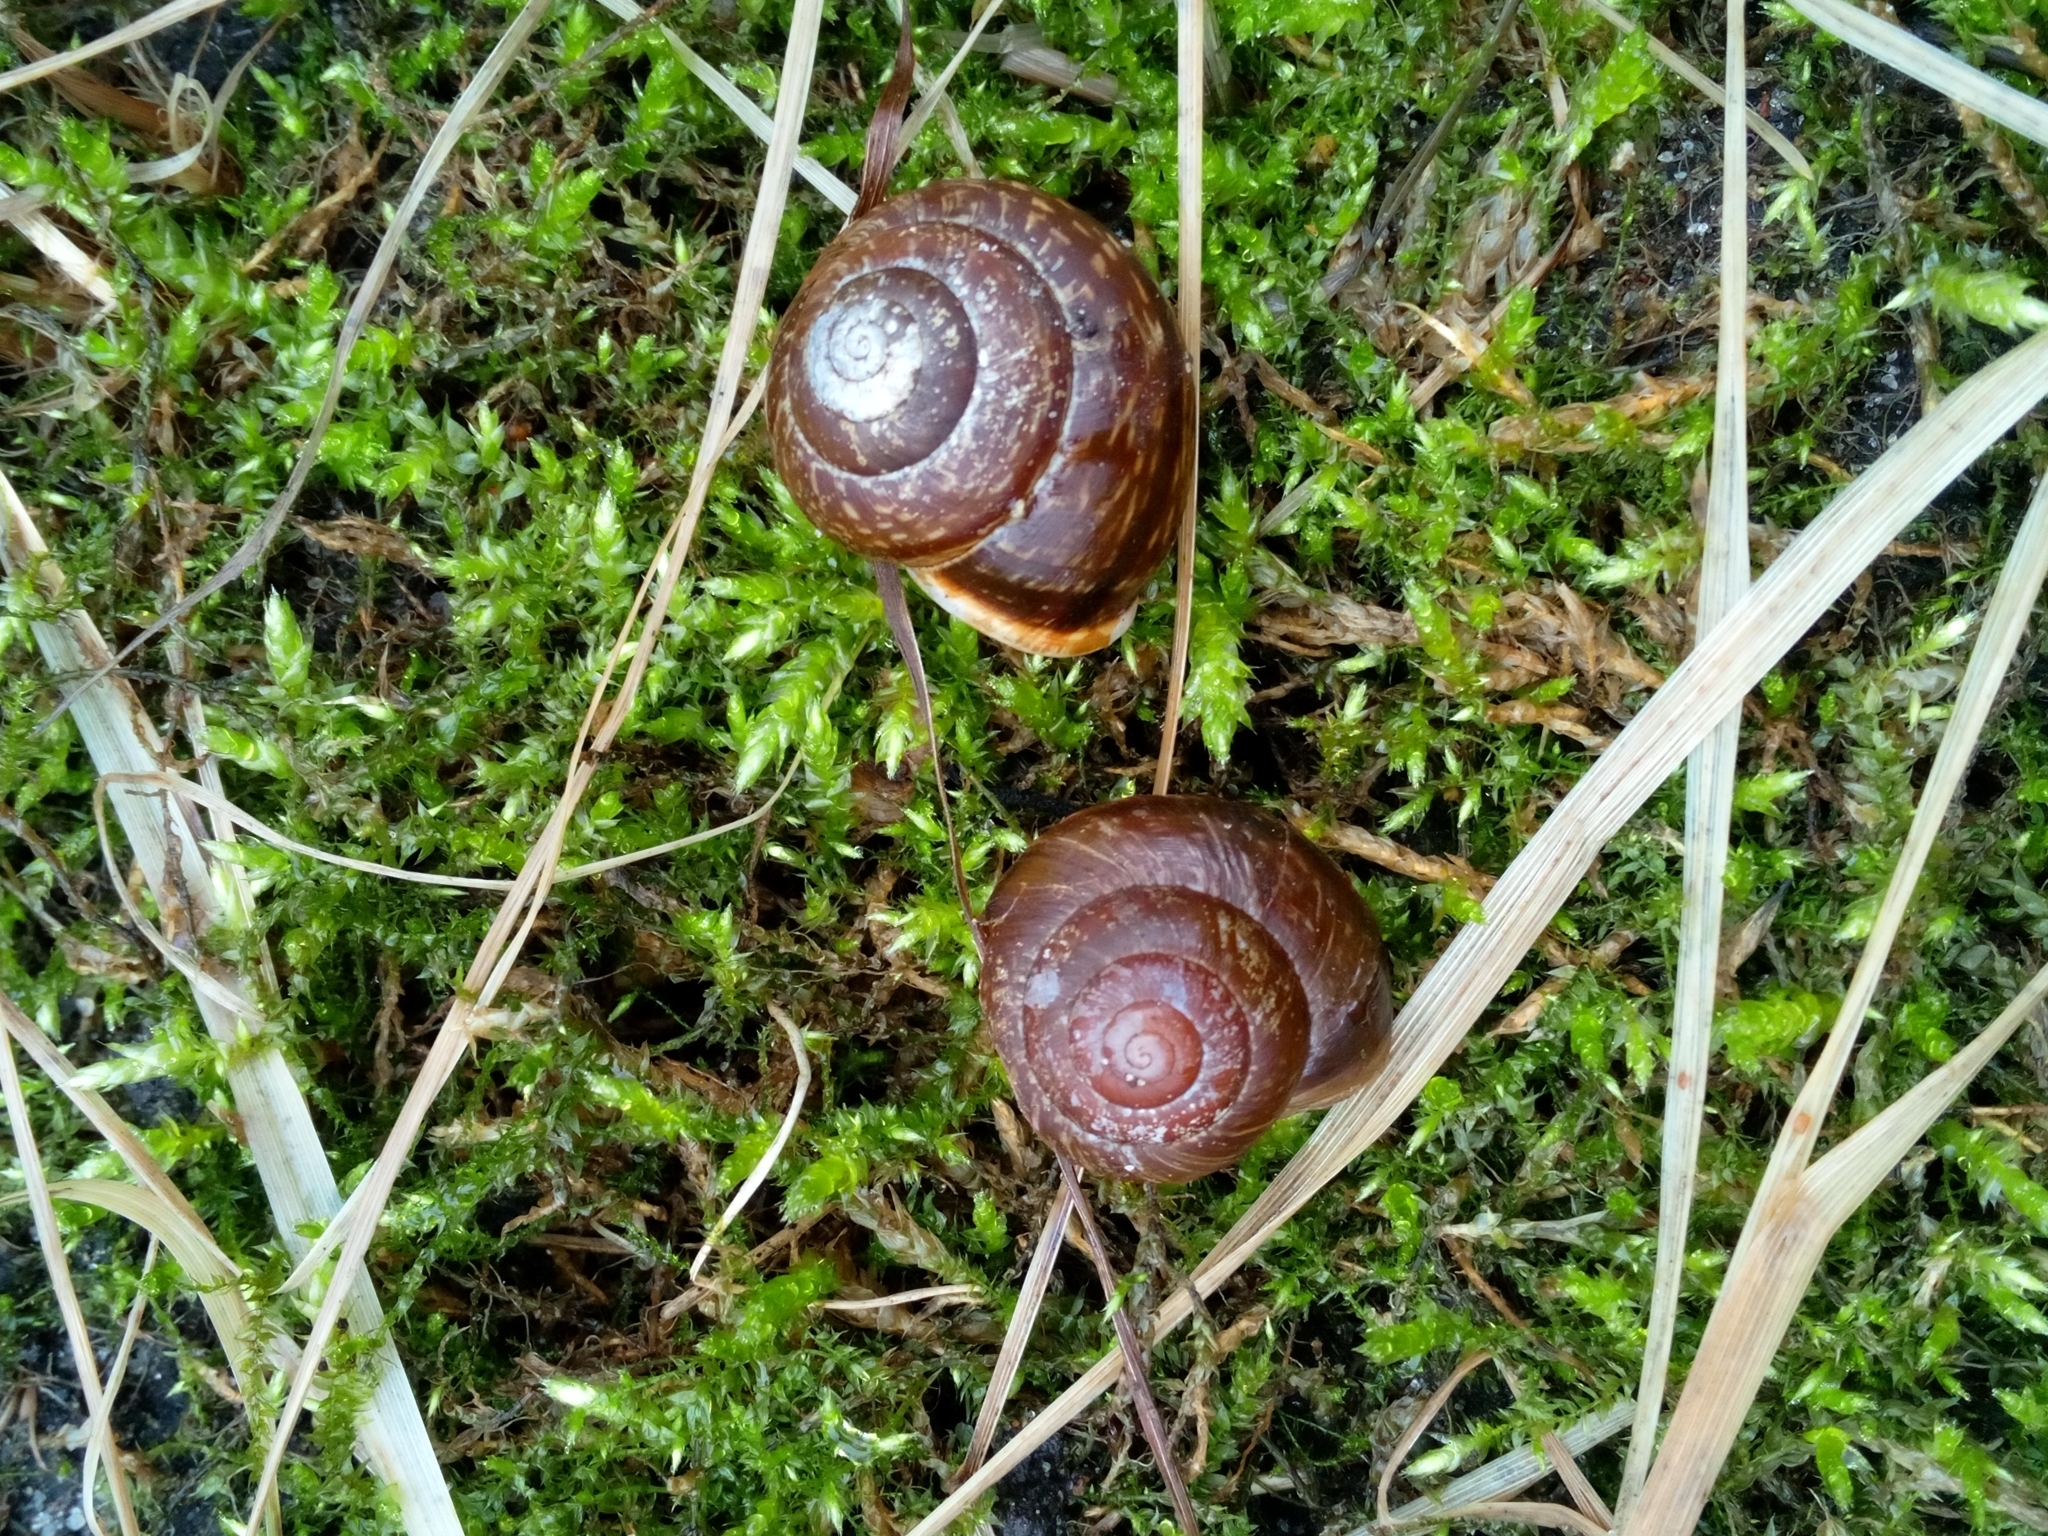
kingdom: Animalia
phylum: Mollusca
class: Gastropoda
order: Stylommatophora
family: Helicidae
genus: Arianta
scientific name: Arianta arbustorum
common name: Copse snail
